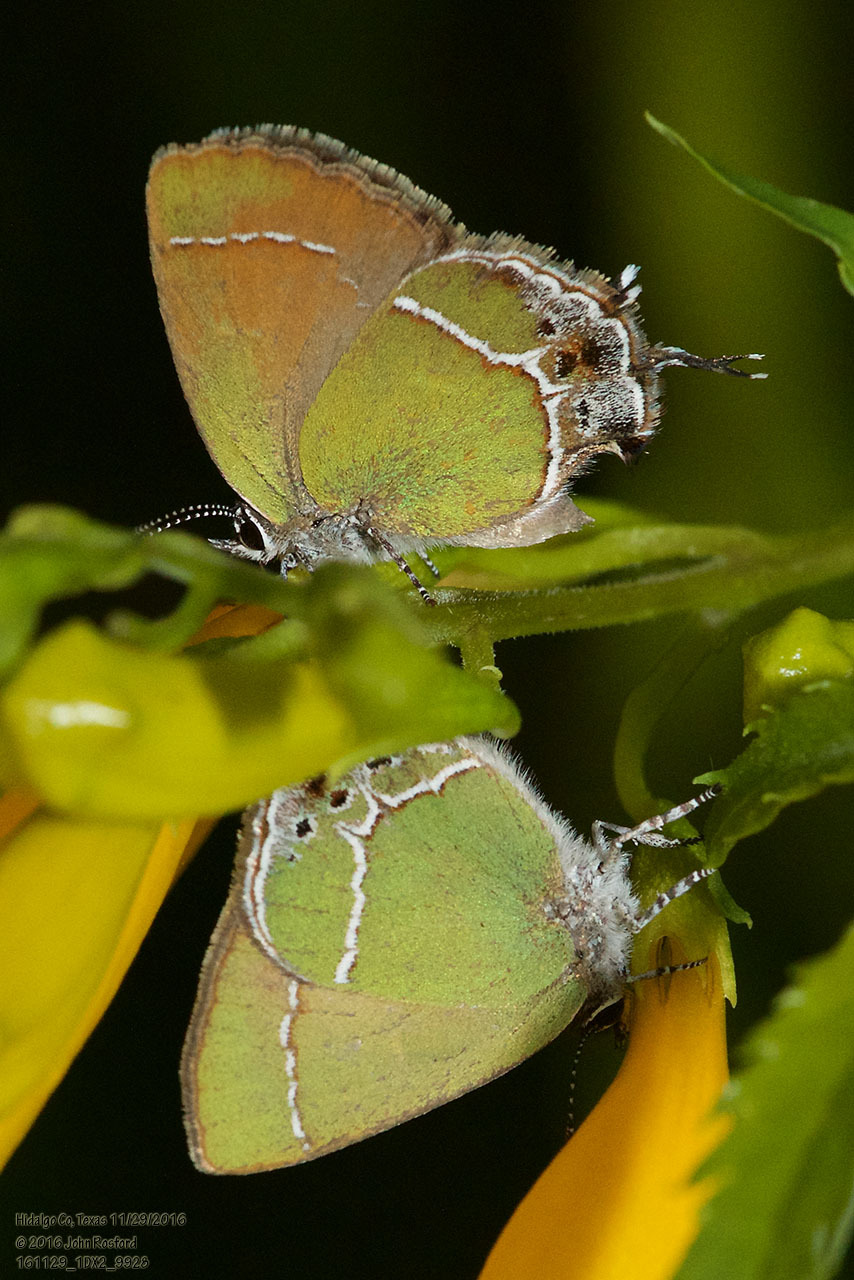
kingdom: Animalia
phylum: Arthropoda
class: Insecta
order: Lepidoptera
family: Lycaenidae
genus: Xamia
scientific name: Xamia xami
